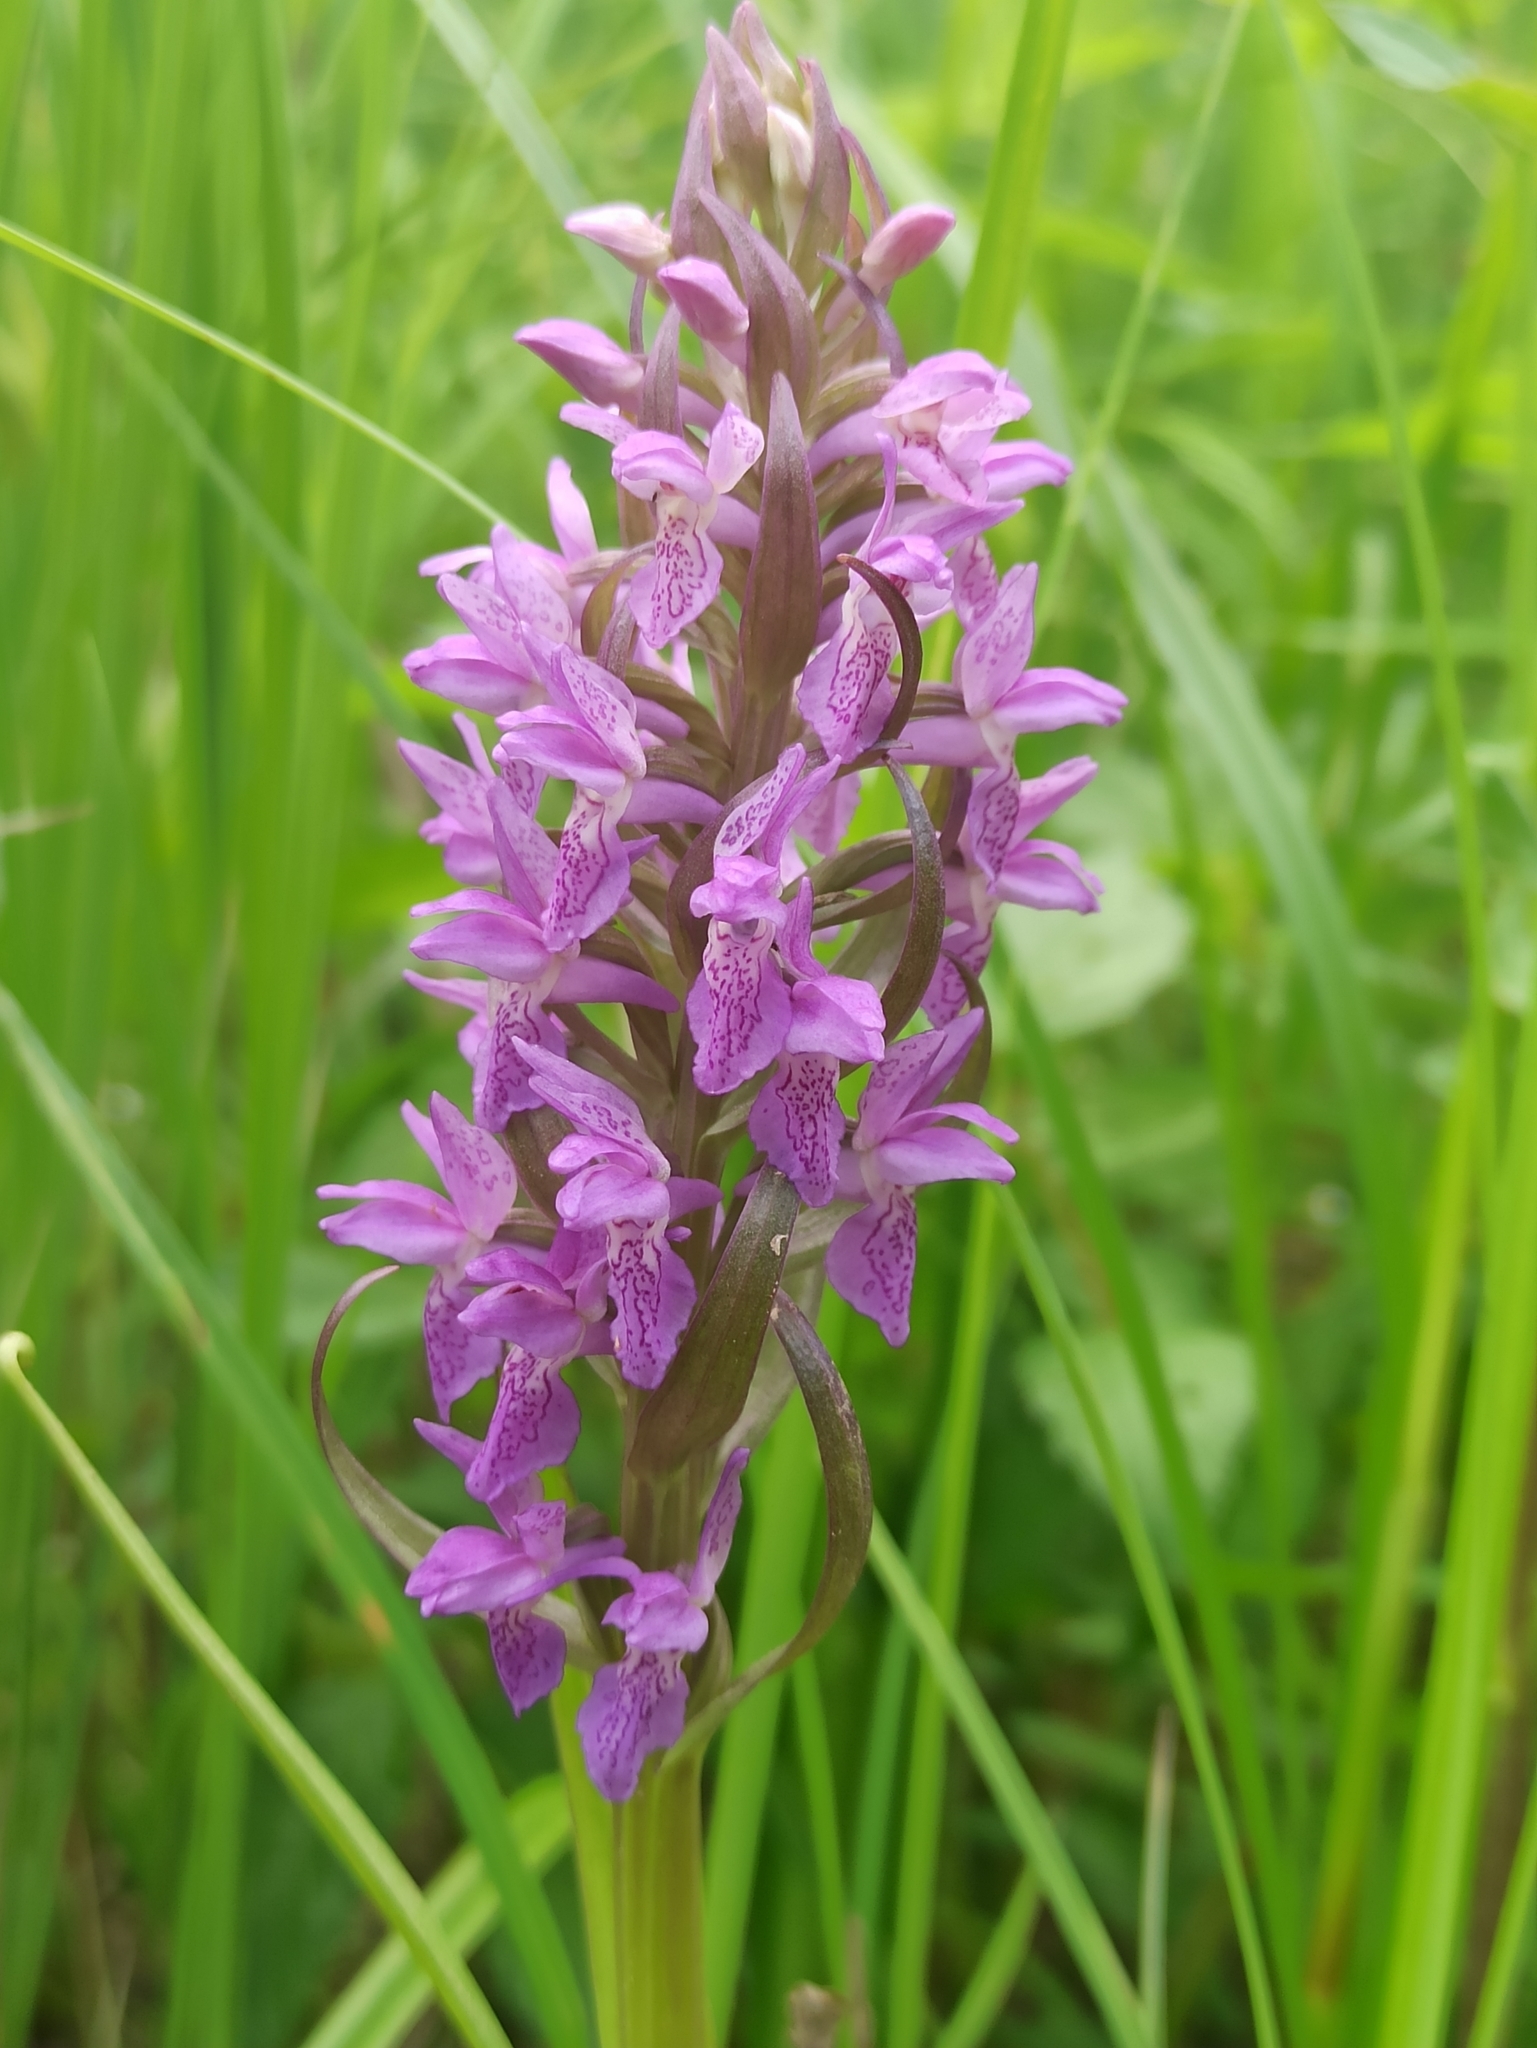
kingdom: Plantae
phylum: Tracheophyta
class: Liliopsida
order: Asparagales
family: Orchidaceae
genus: Dactylorhiza
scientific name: Dactylorhiza incarnata
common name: Early marsh-orchid
